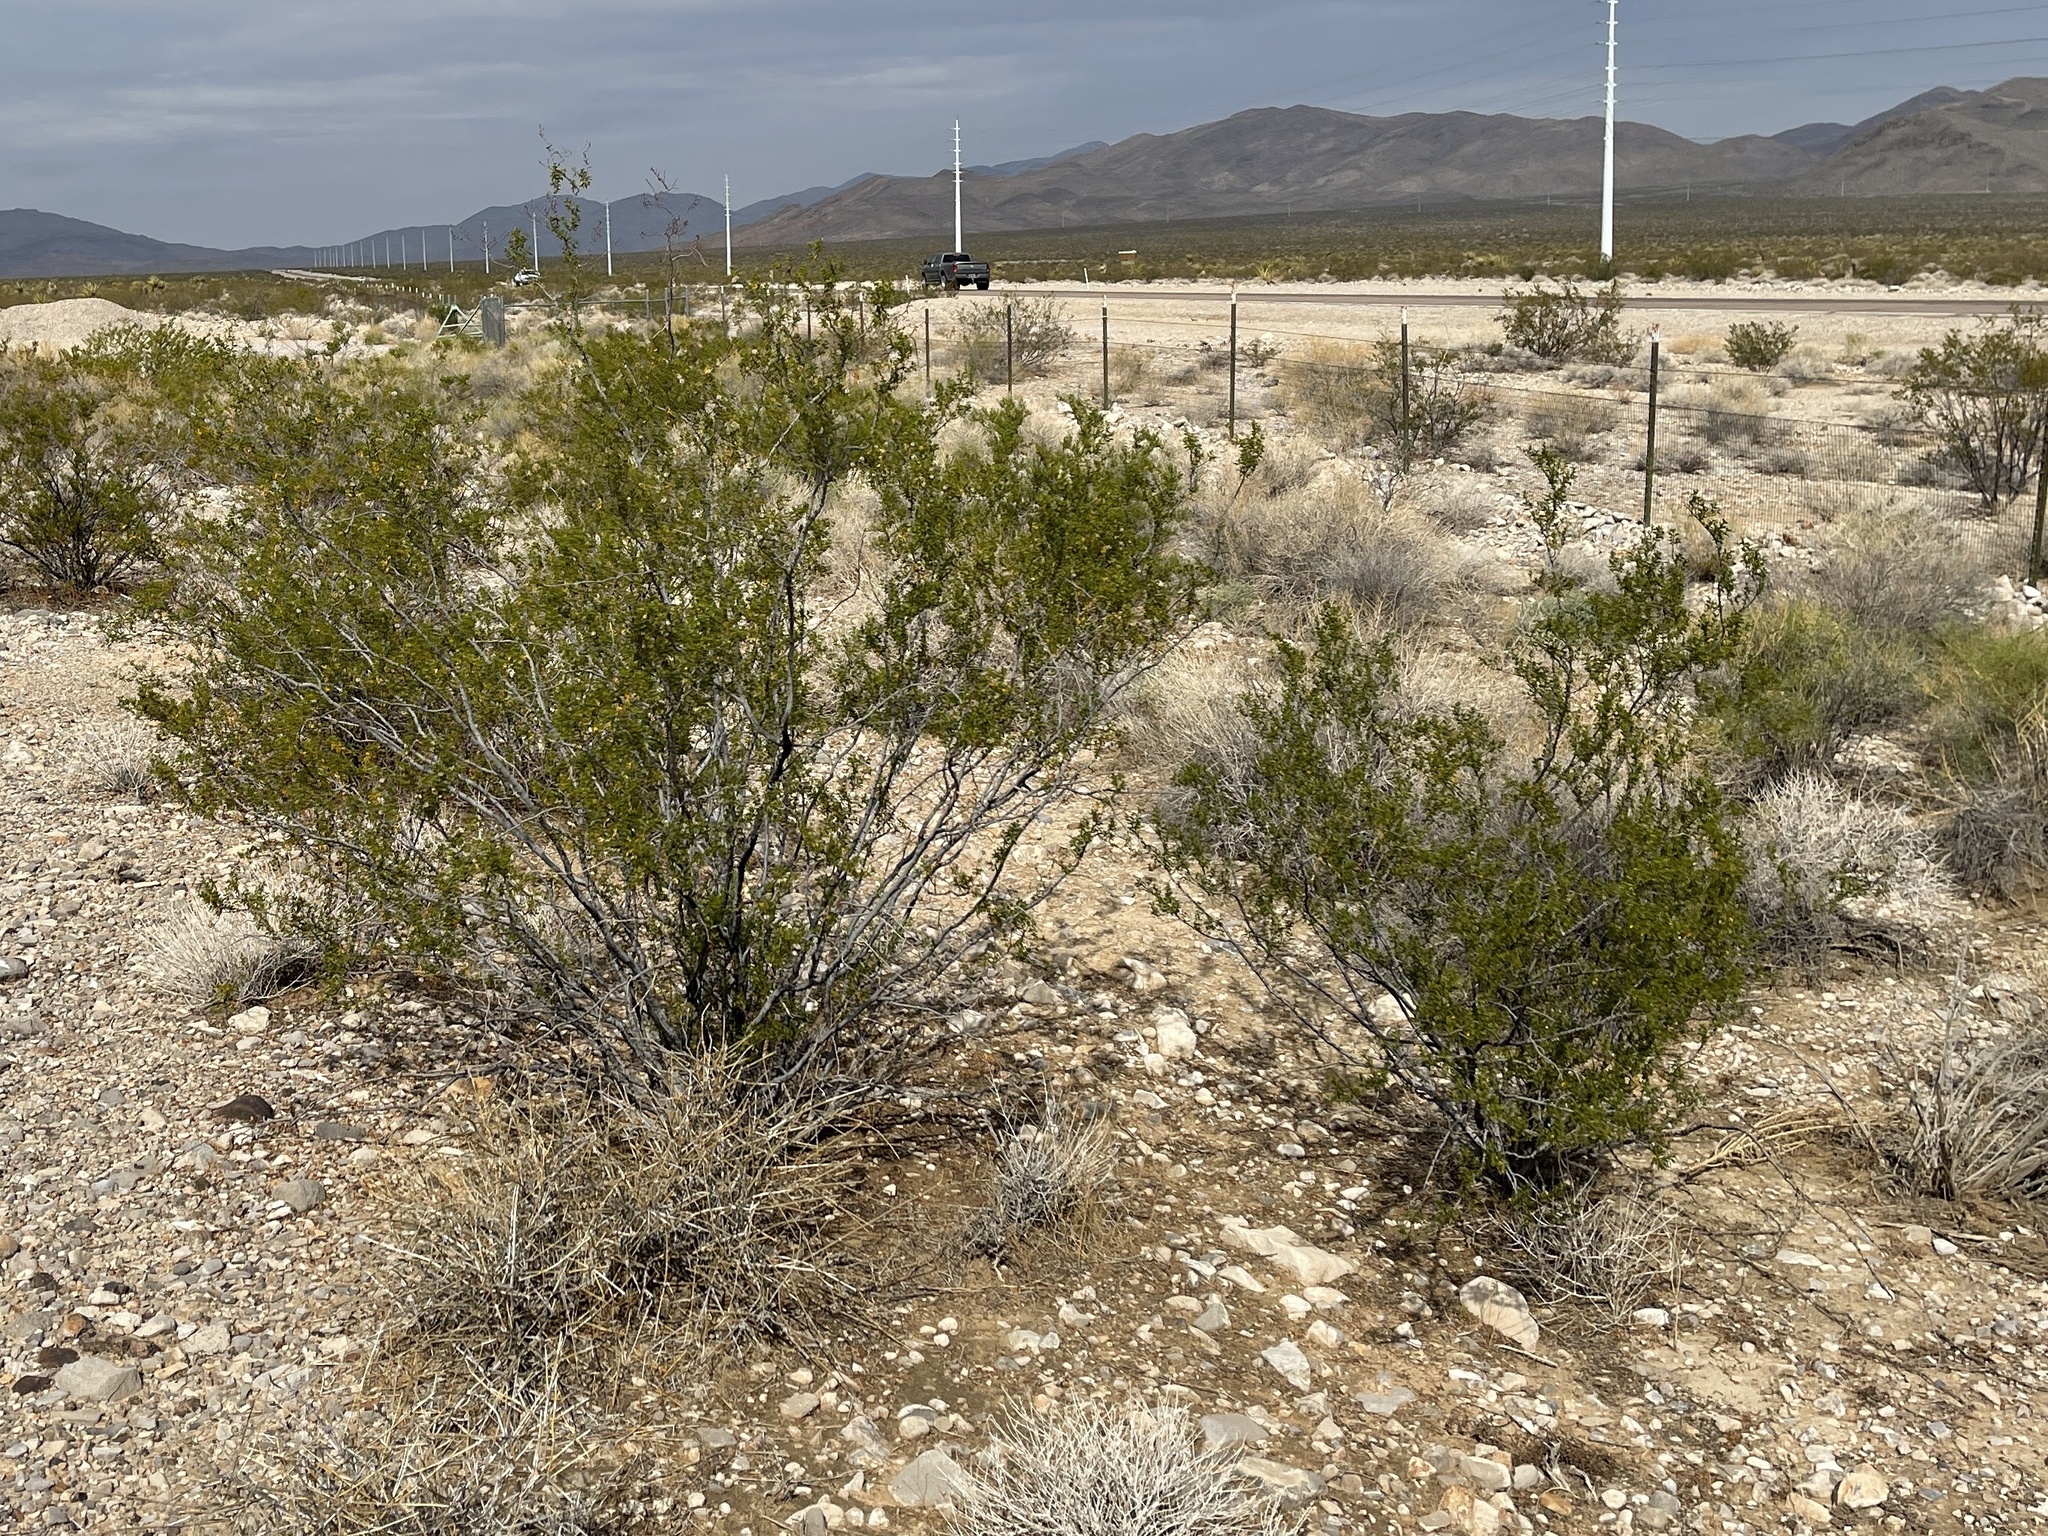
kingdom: Plantae
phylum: Tracheophyta
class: Magnoliopsida
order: Zygophyllales
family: Zygophyllaceae
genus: Larrea
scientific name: Larrea tridentata
